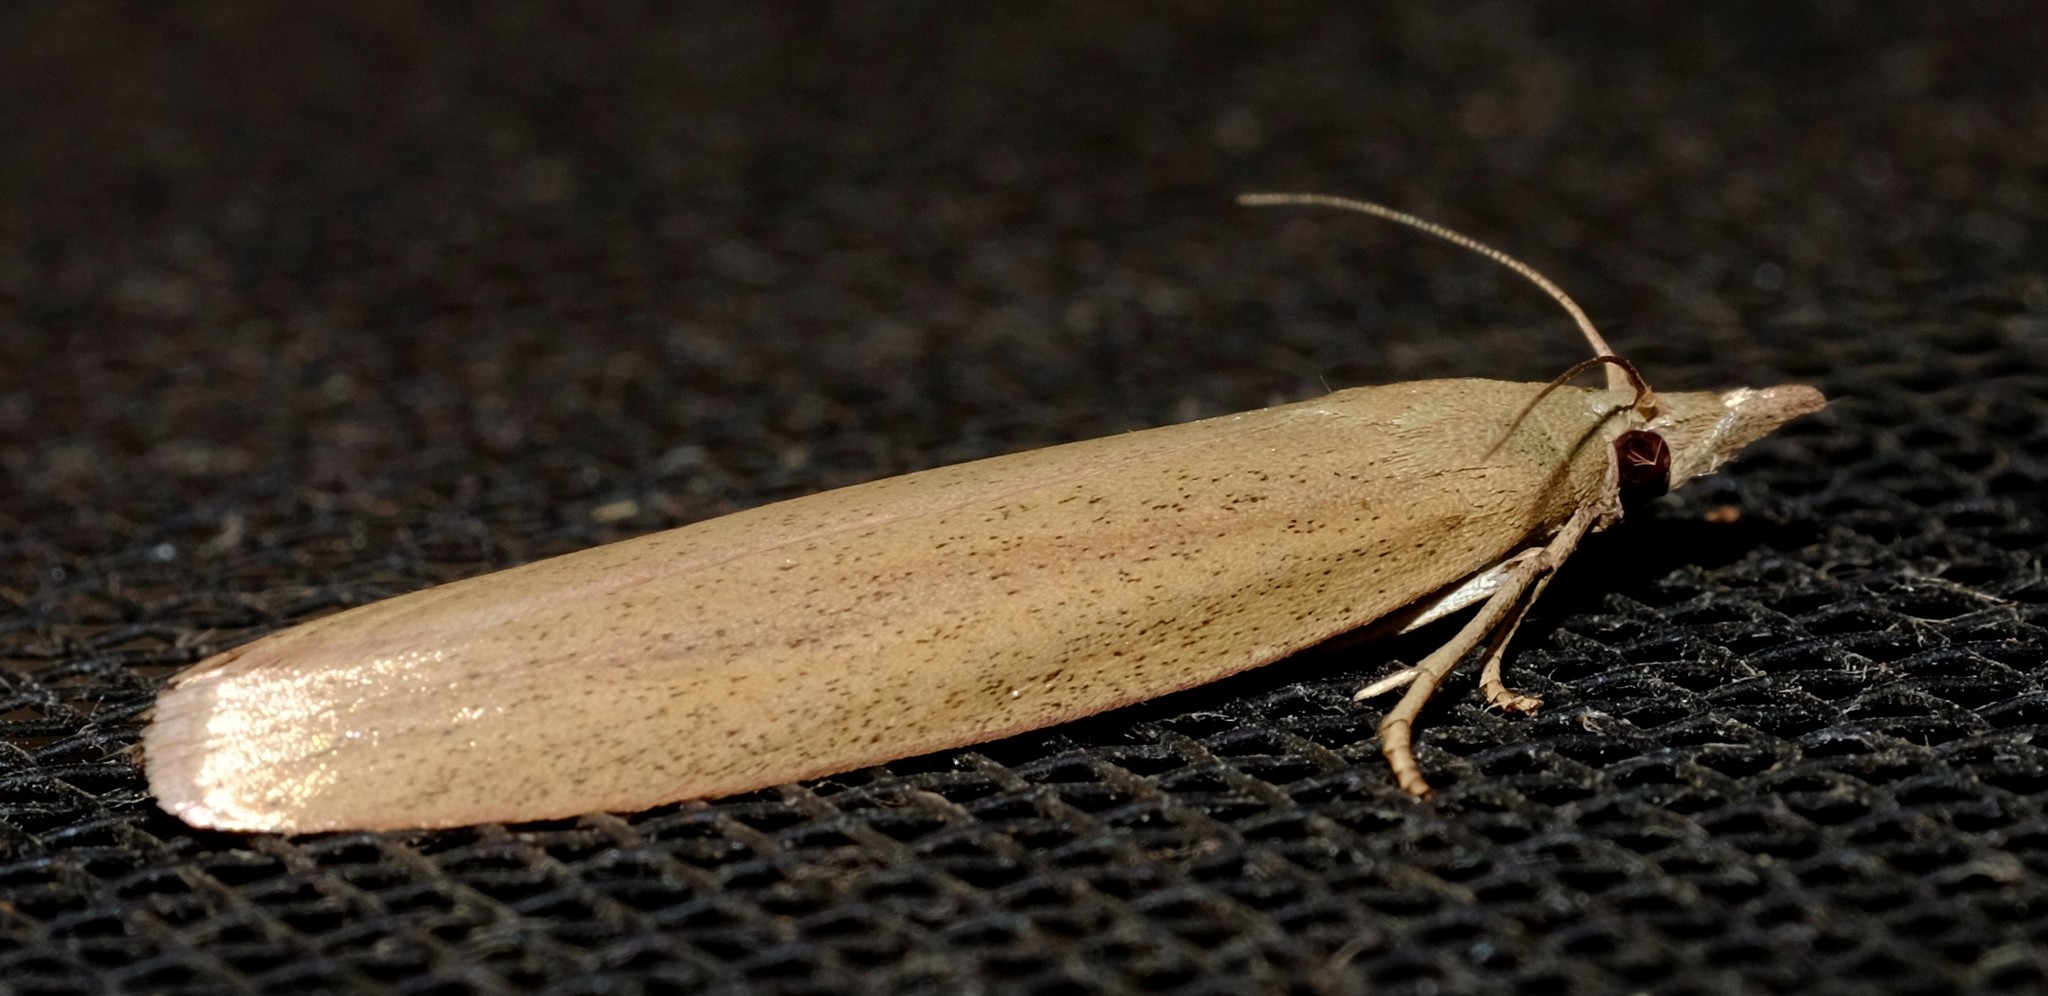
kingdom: Animalia
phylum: Arthropoda
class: Insecta
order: Lepidoptera
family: Pyralidae
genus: Meyriccia
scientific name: Meyriccia latro
